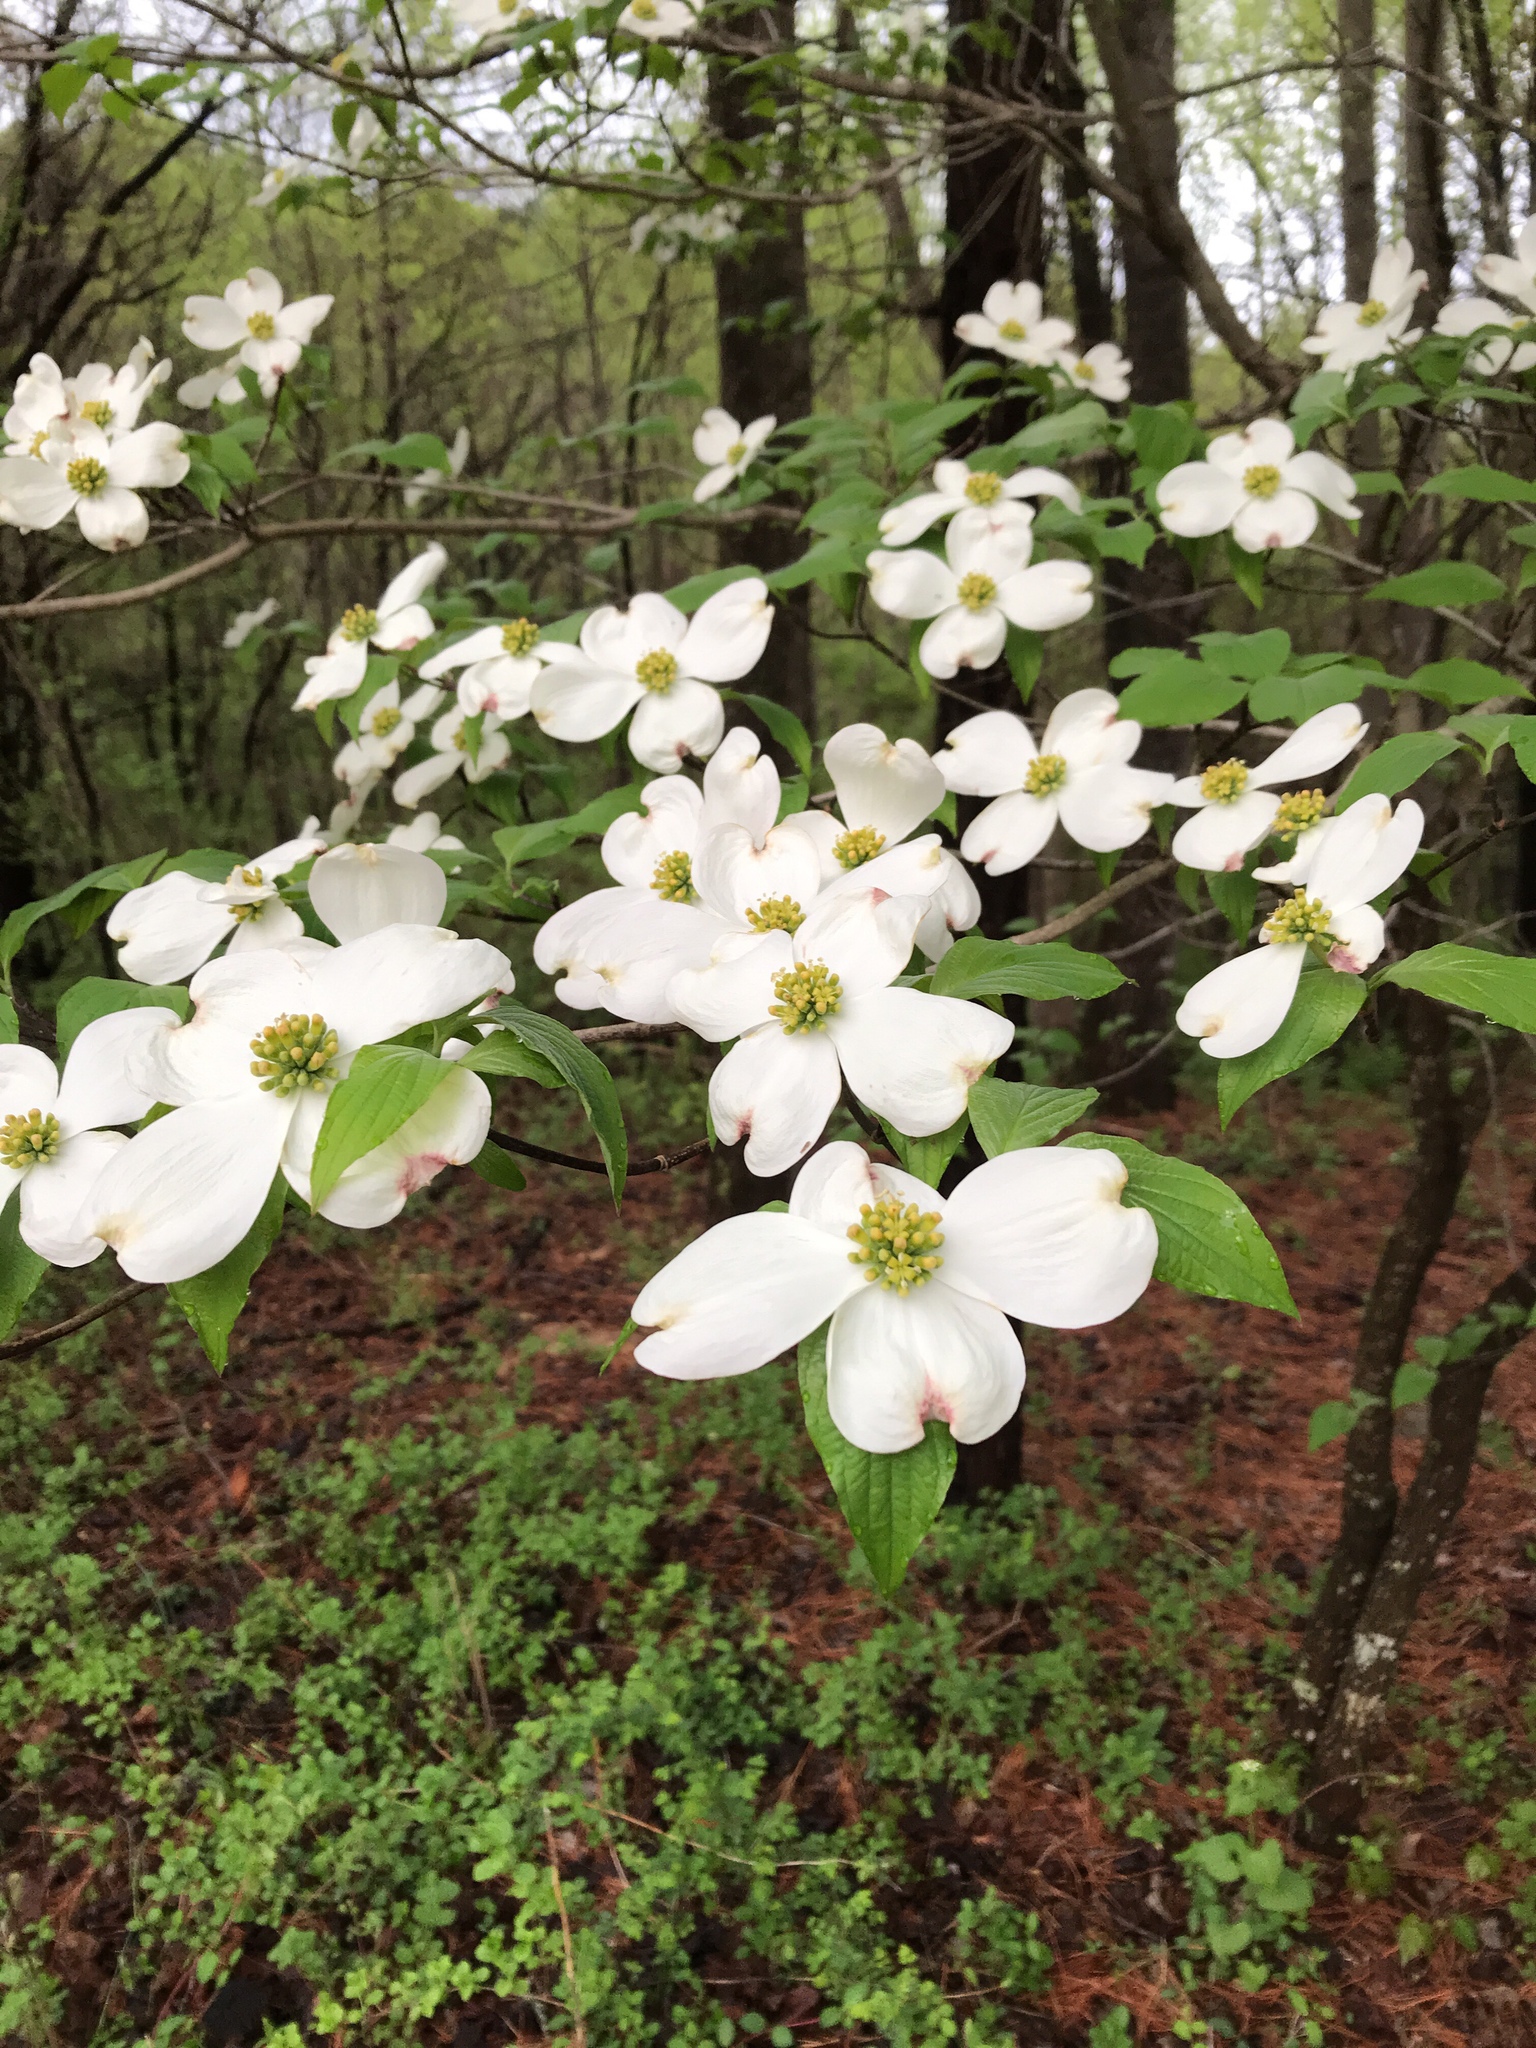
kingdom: Plantae
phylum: Tracheophyta
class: Magnoliopsida
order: Cornales
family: Cornaceae
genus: Cornus
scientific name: Cornus florida
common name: Flowering dogwood
